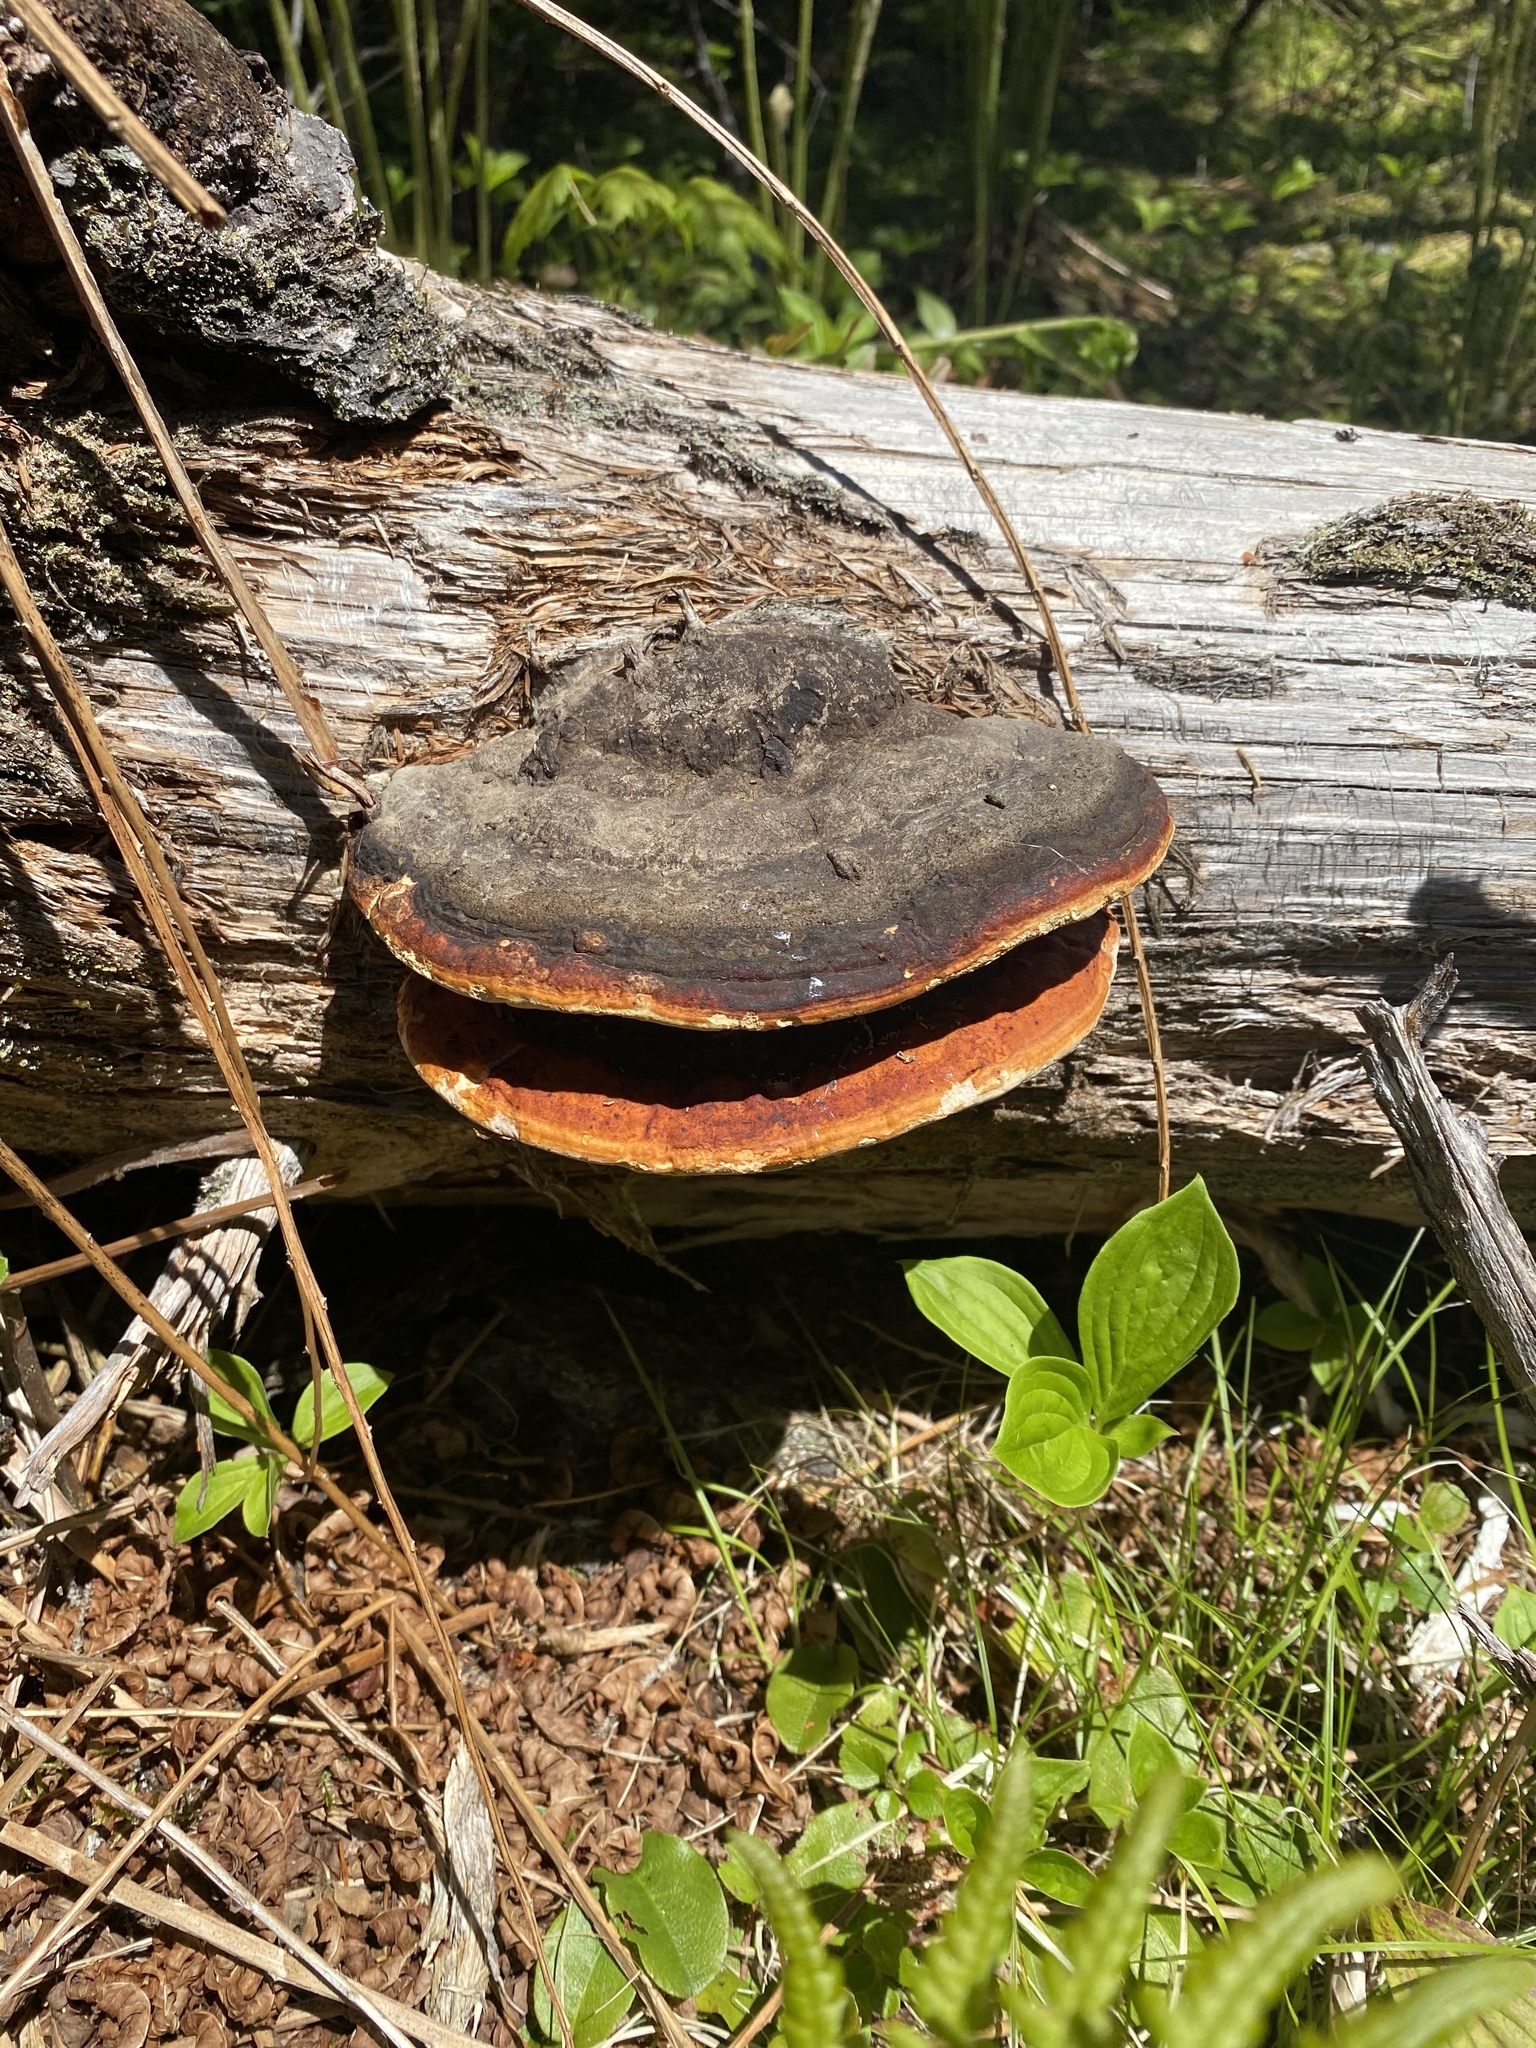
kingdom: Fungi
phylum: Basidiomycota
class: Agaricomycetes
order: Polyporales
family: Fomitopsidaceae
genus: Fomitopsis
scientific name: Fomitopsis mounceae
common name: Northern red belt
